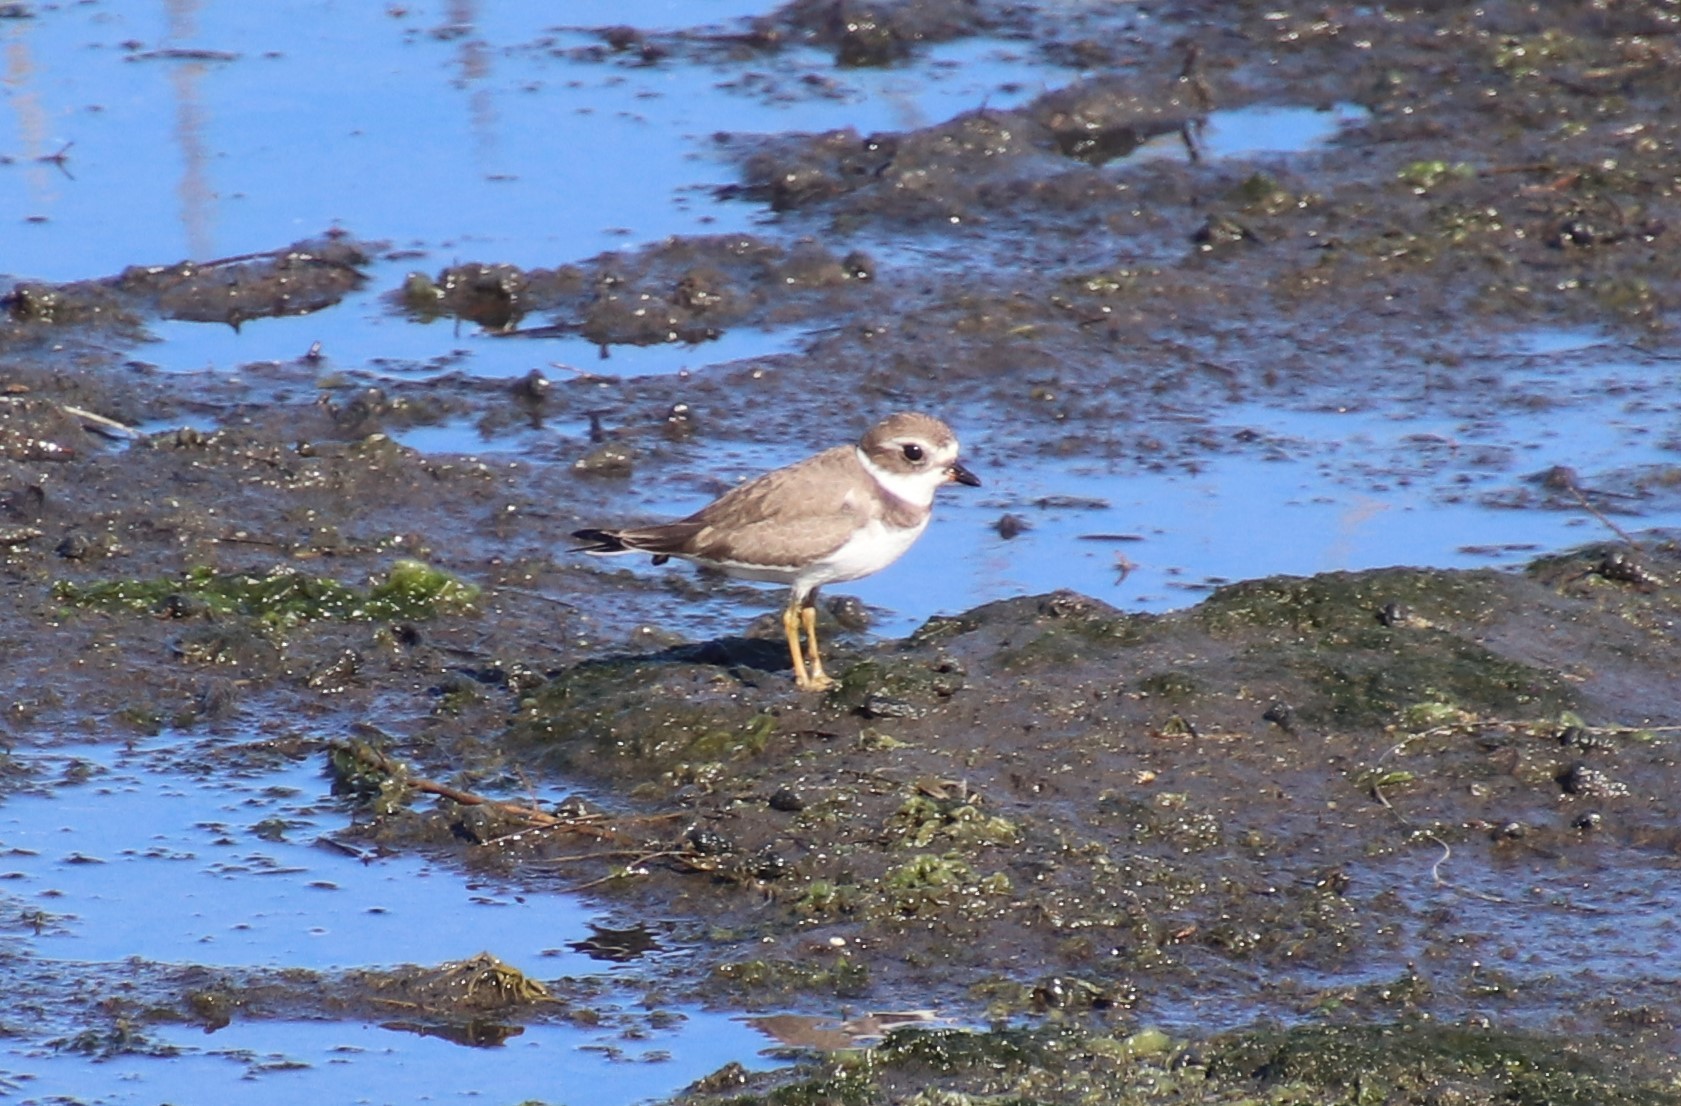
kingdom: Animalia
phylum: Chordata
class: Aves
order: Charadriiformes
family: Charadriidae
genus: Charadrius
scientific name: Charadrius semipalmatus
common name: Semipalmated plover
